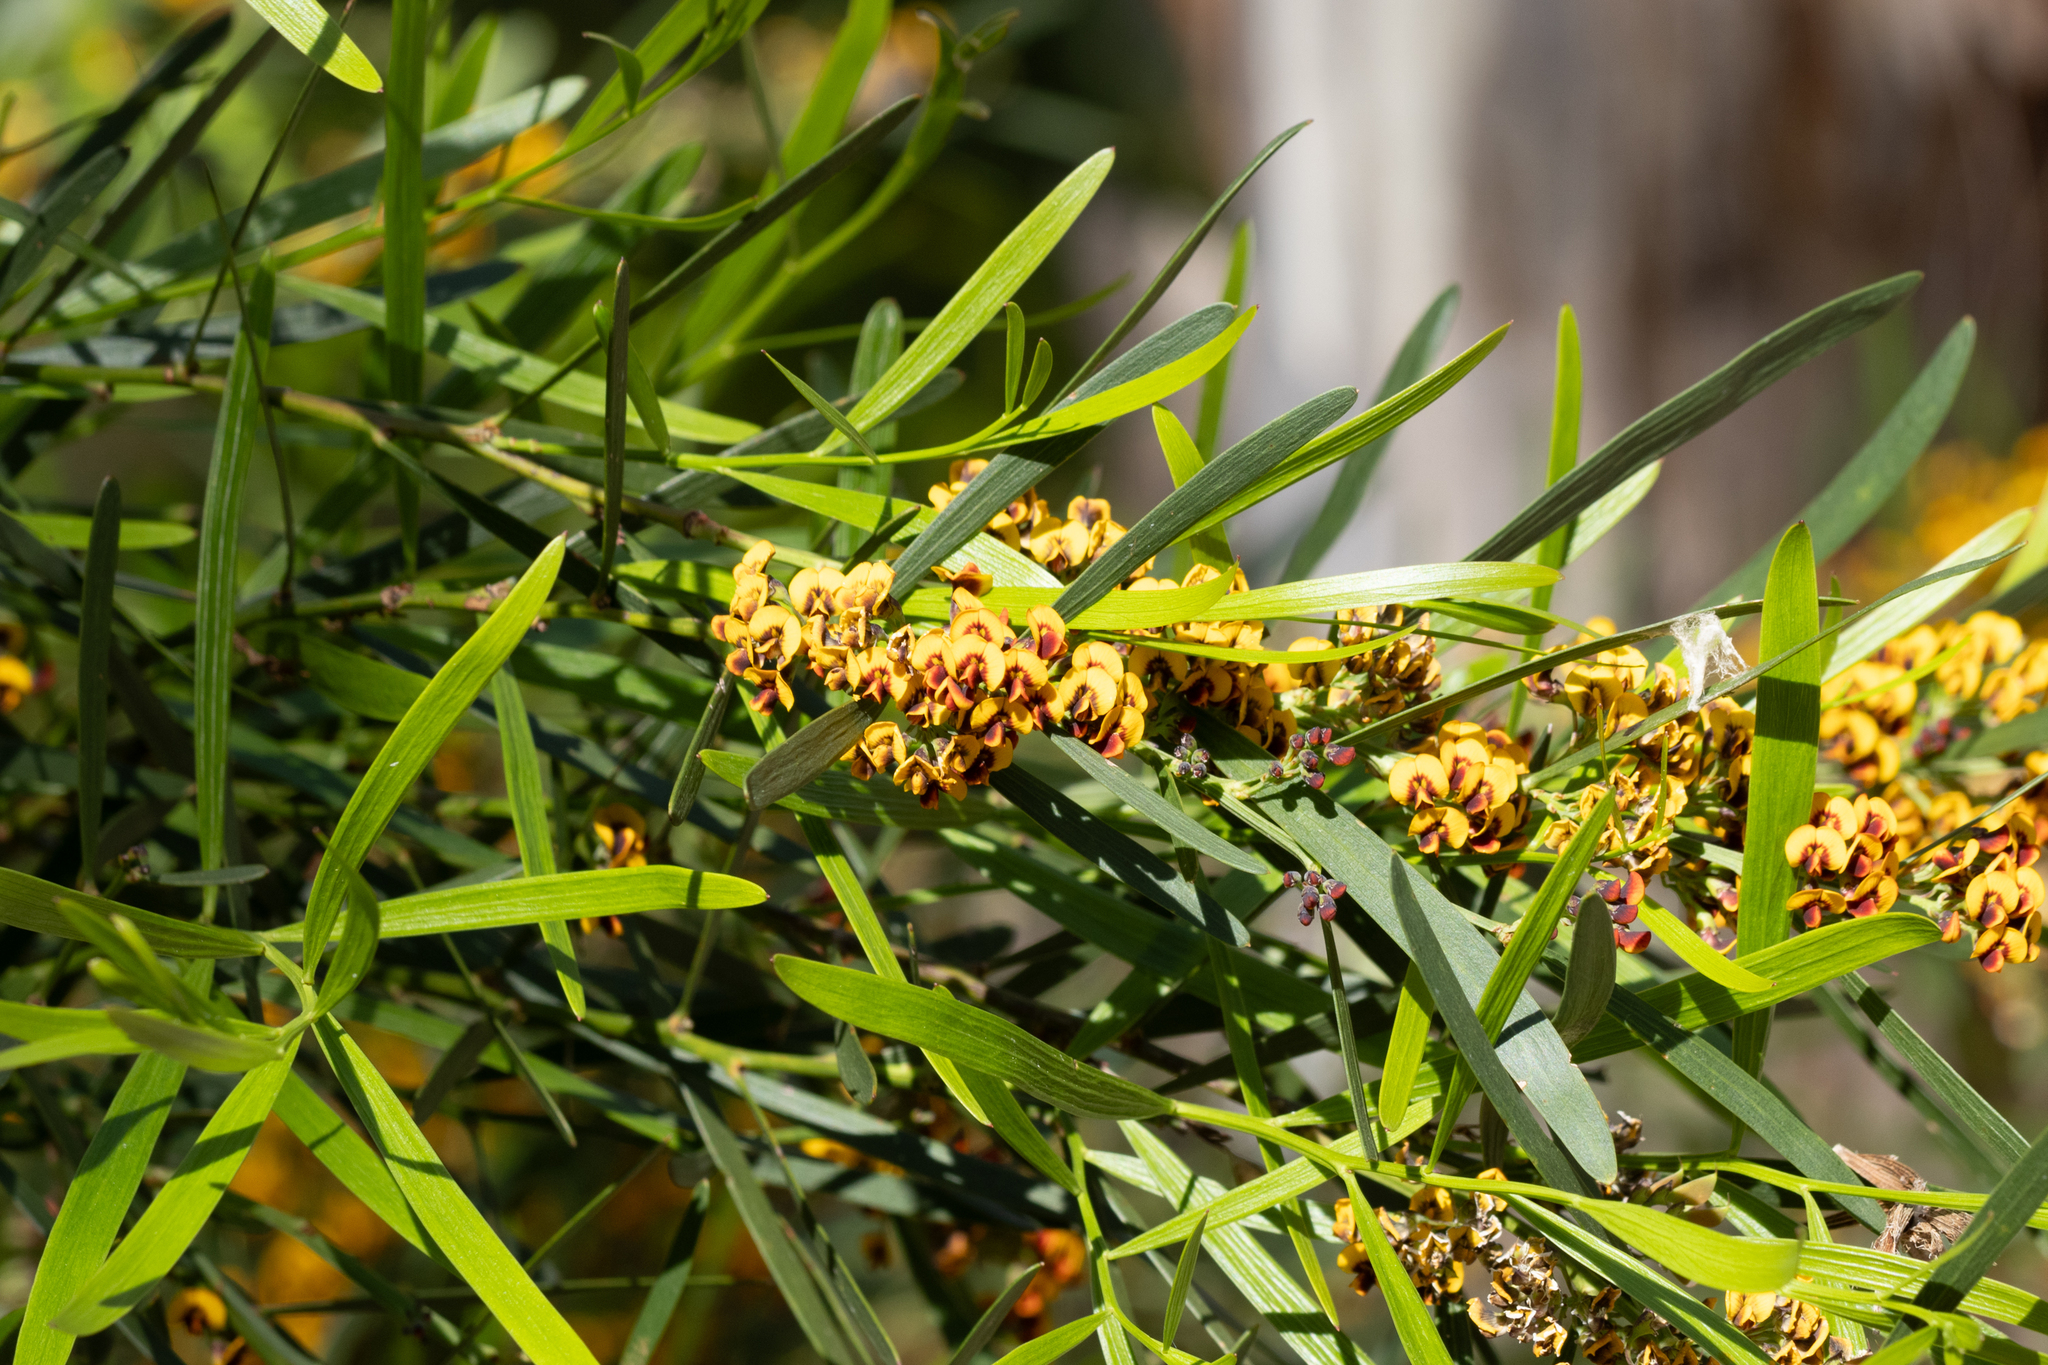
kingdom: Plantae
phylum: Tracheophyta
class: Magnoliopsida
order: Fabales
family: Fabaceae
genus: Daviesia
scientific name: Daviesia leptophylla
